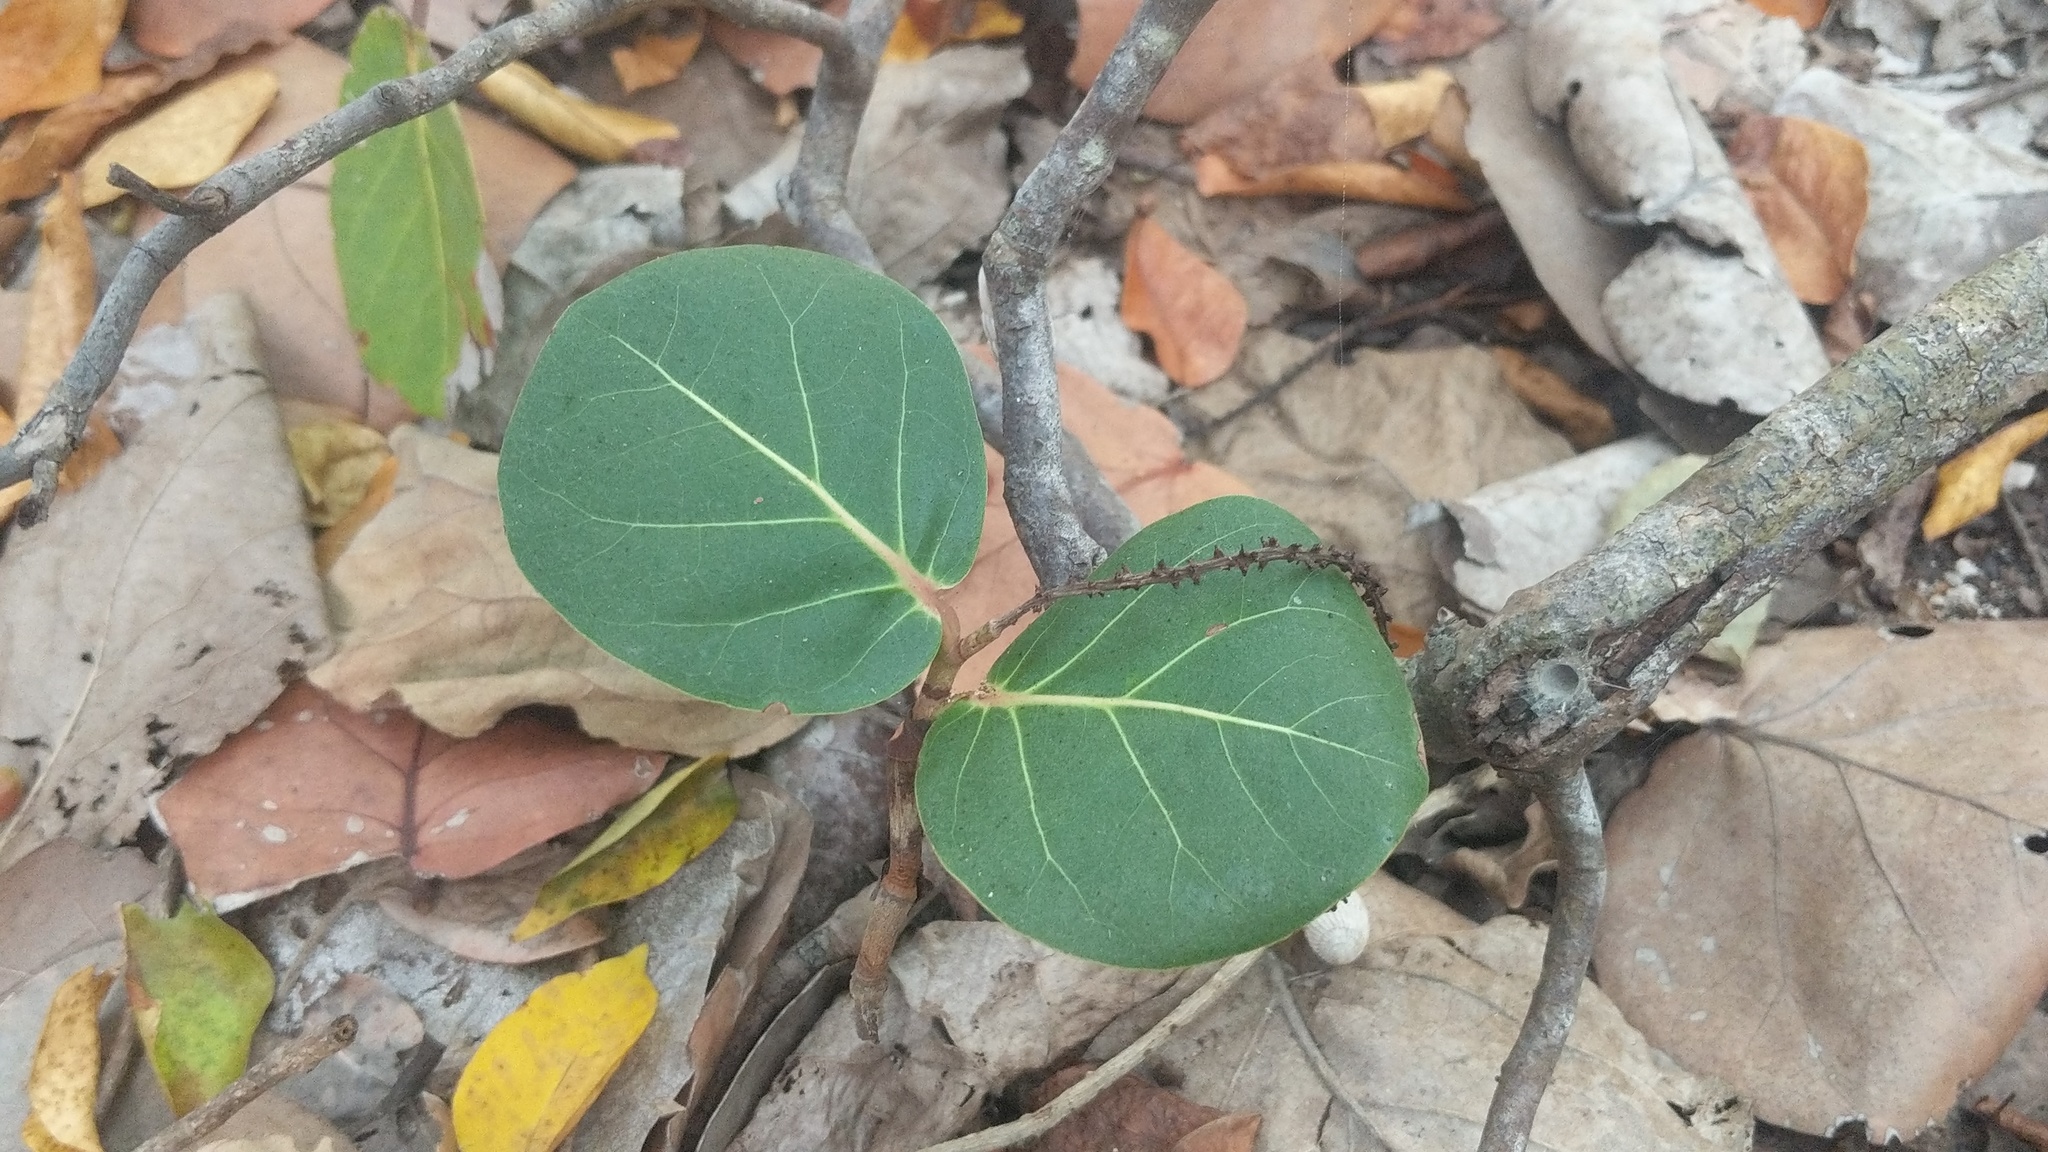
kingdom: Plantae
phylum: Tracheophyta
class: Magnoliopsida
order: Caryophyllales
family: Polygonaceae
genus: Coccoloba
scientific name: Coccoloba uvifera
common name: Seagrape
